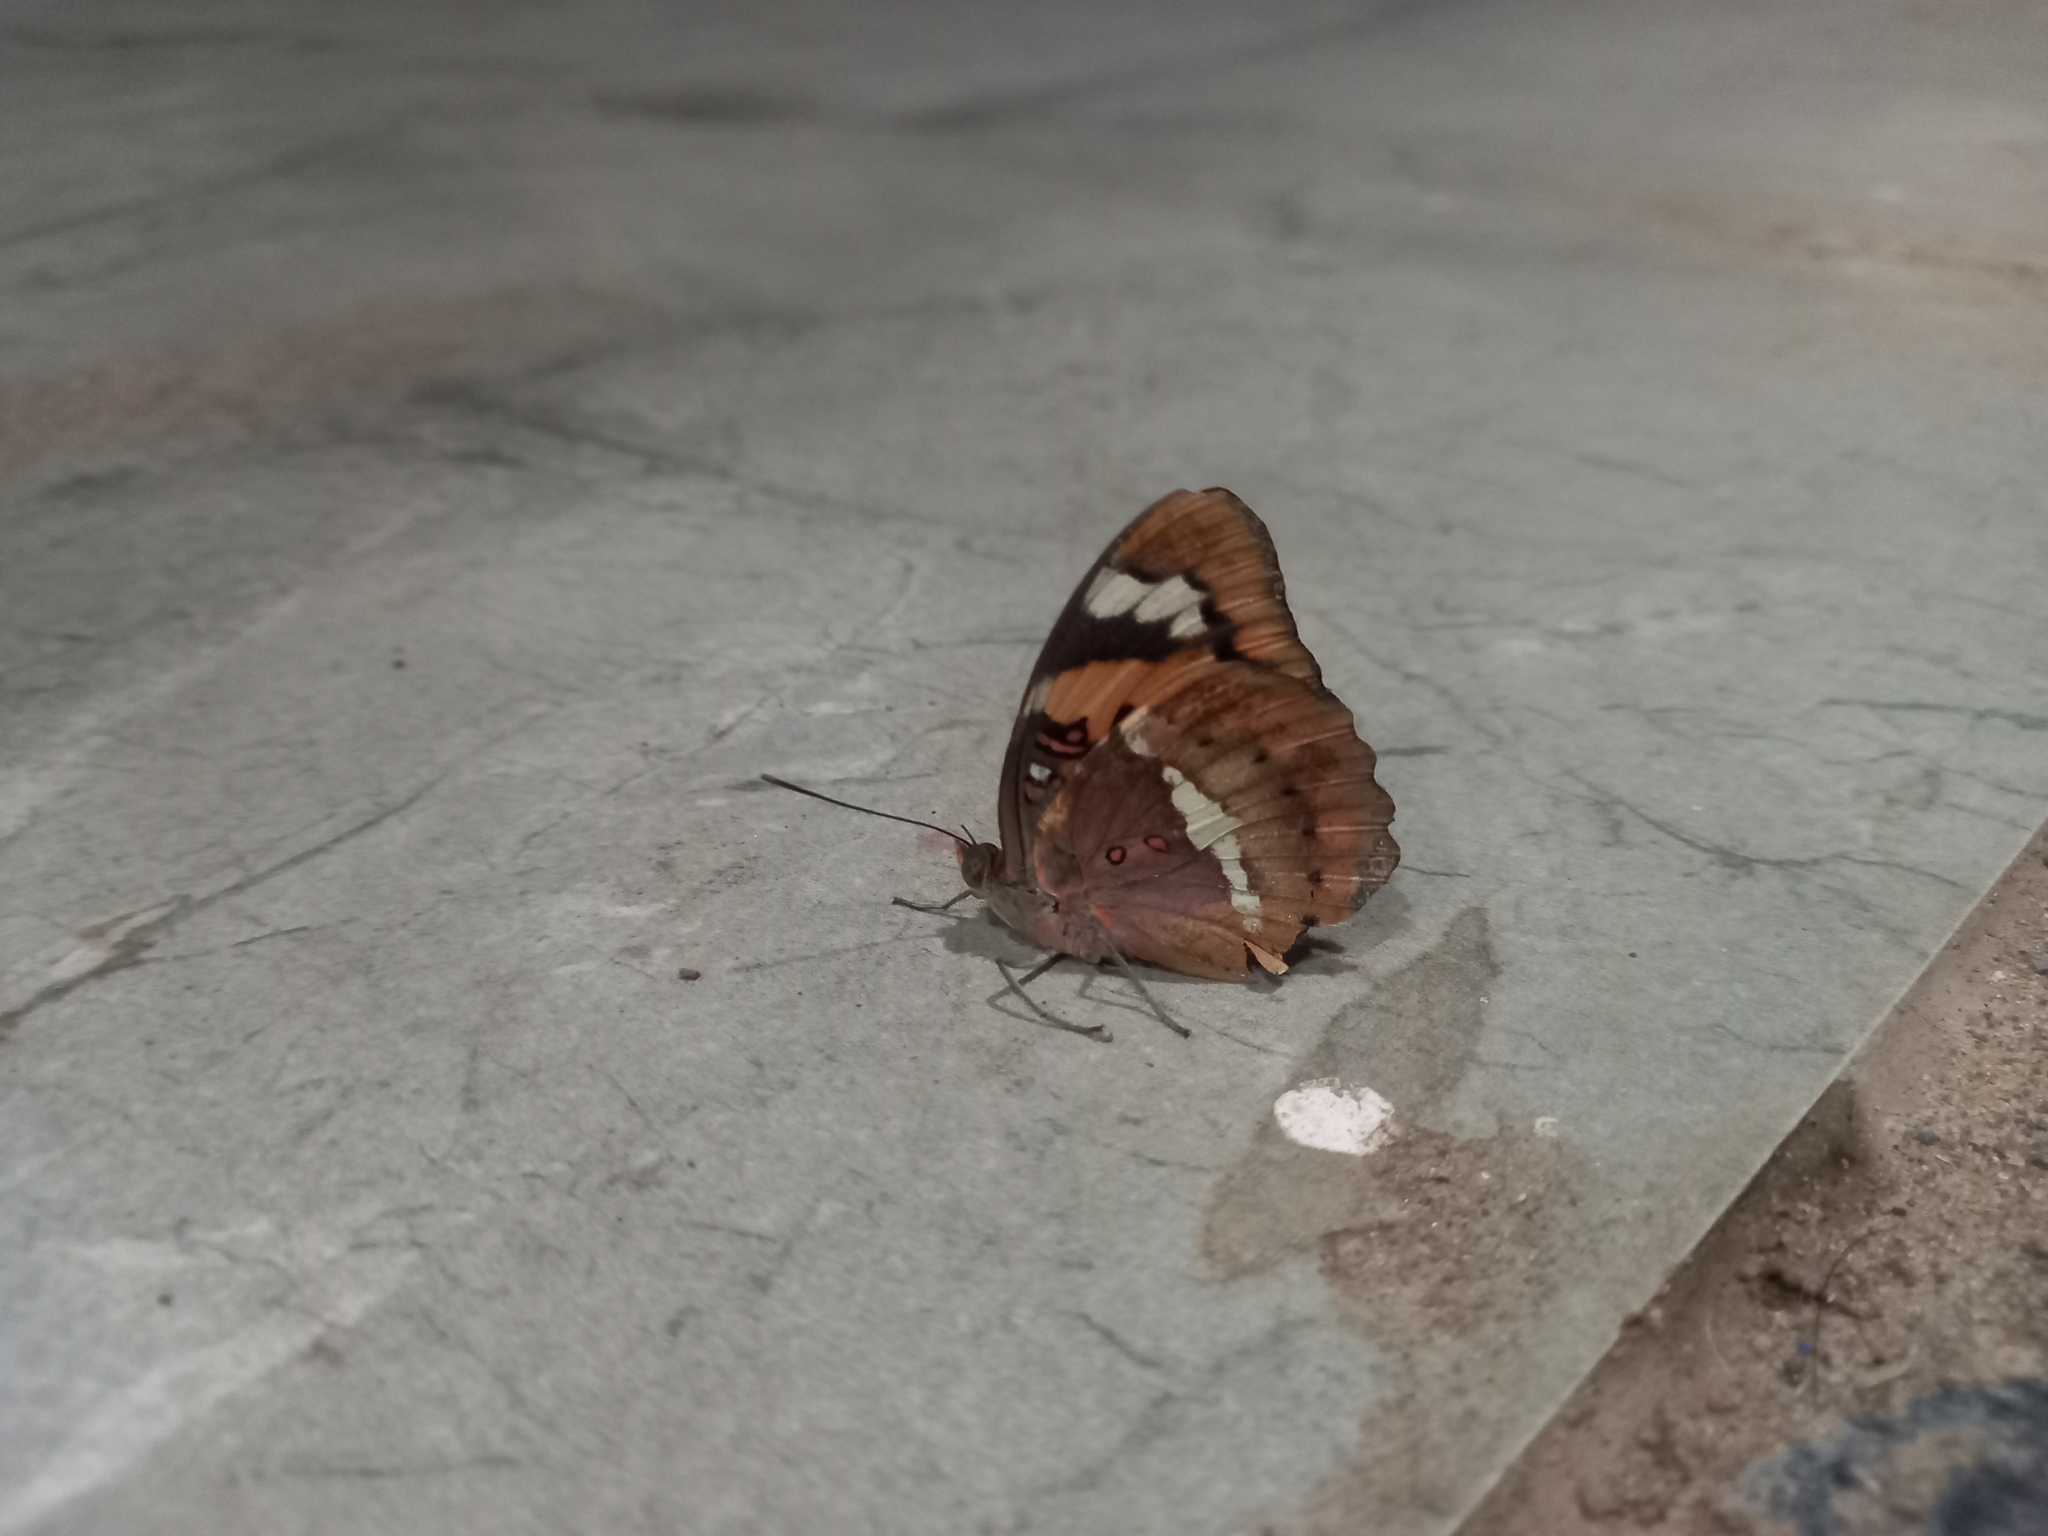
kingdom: Animalia
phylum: Arthropoda
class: Insecta
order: Lepidoptera
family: Nymphalidae
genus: Euthalia
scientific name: Euthalia nais
